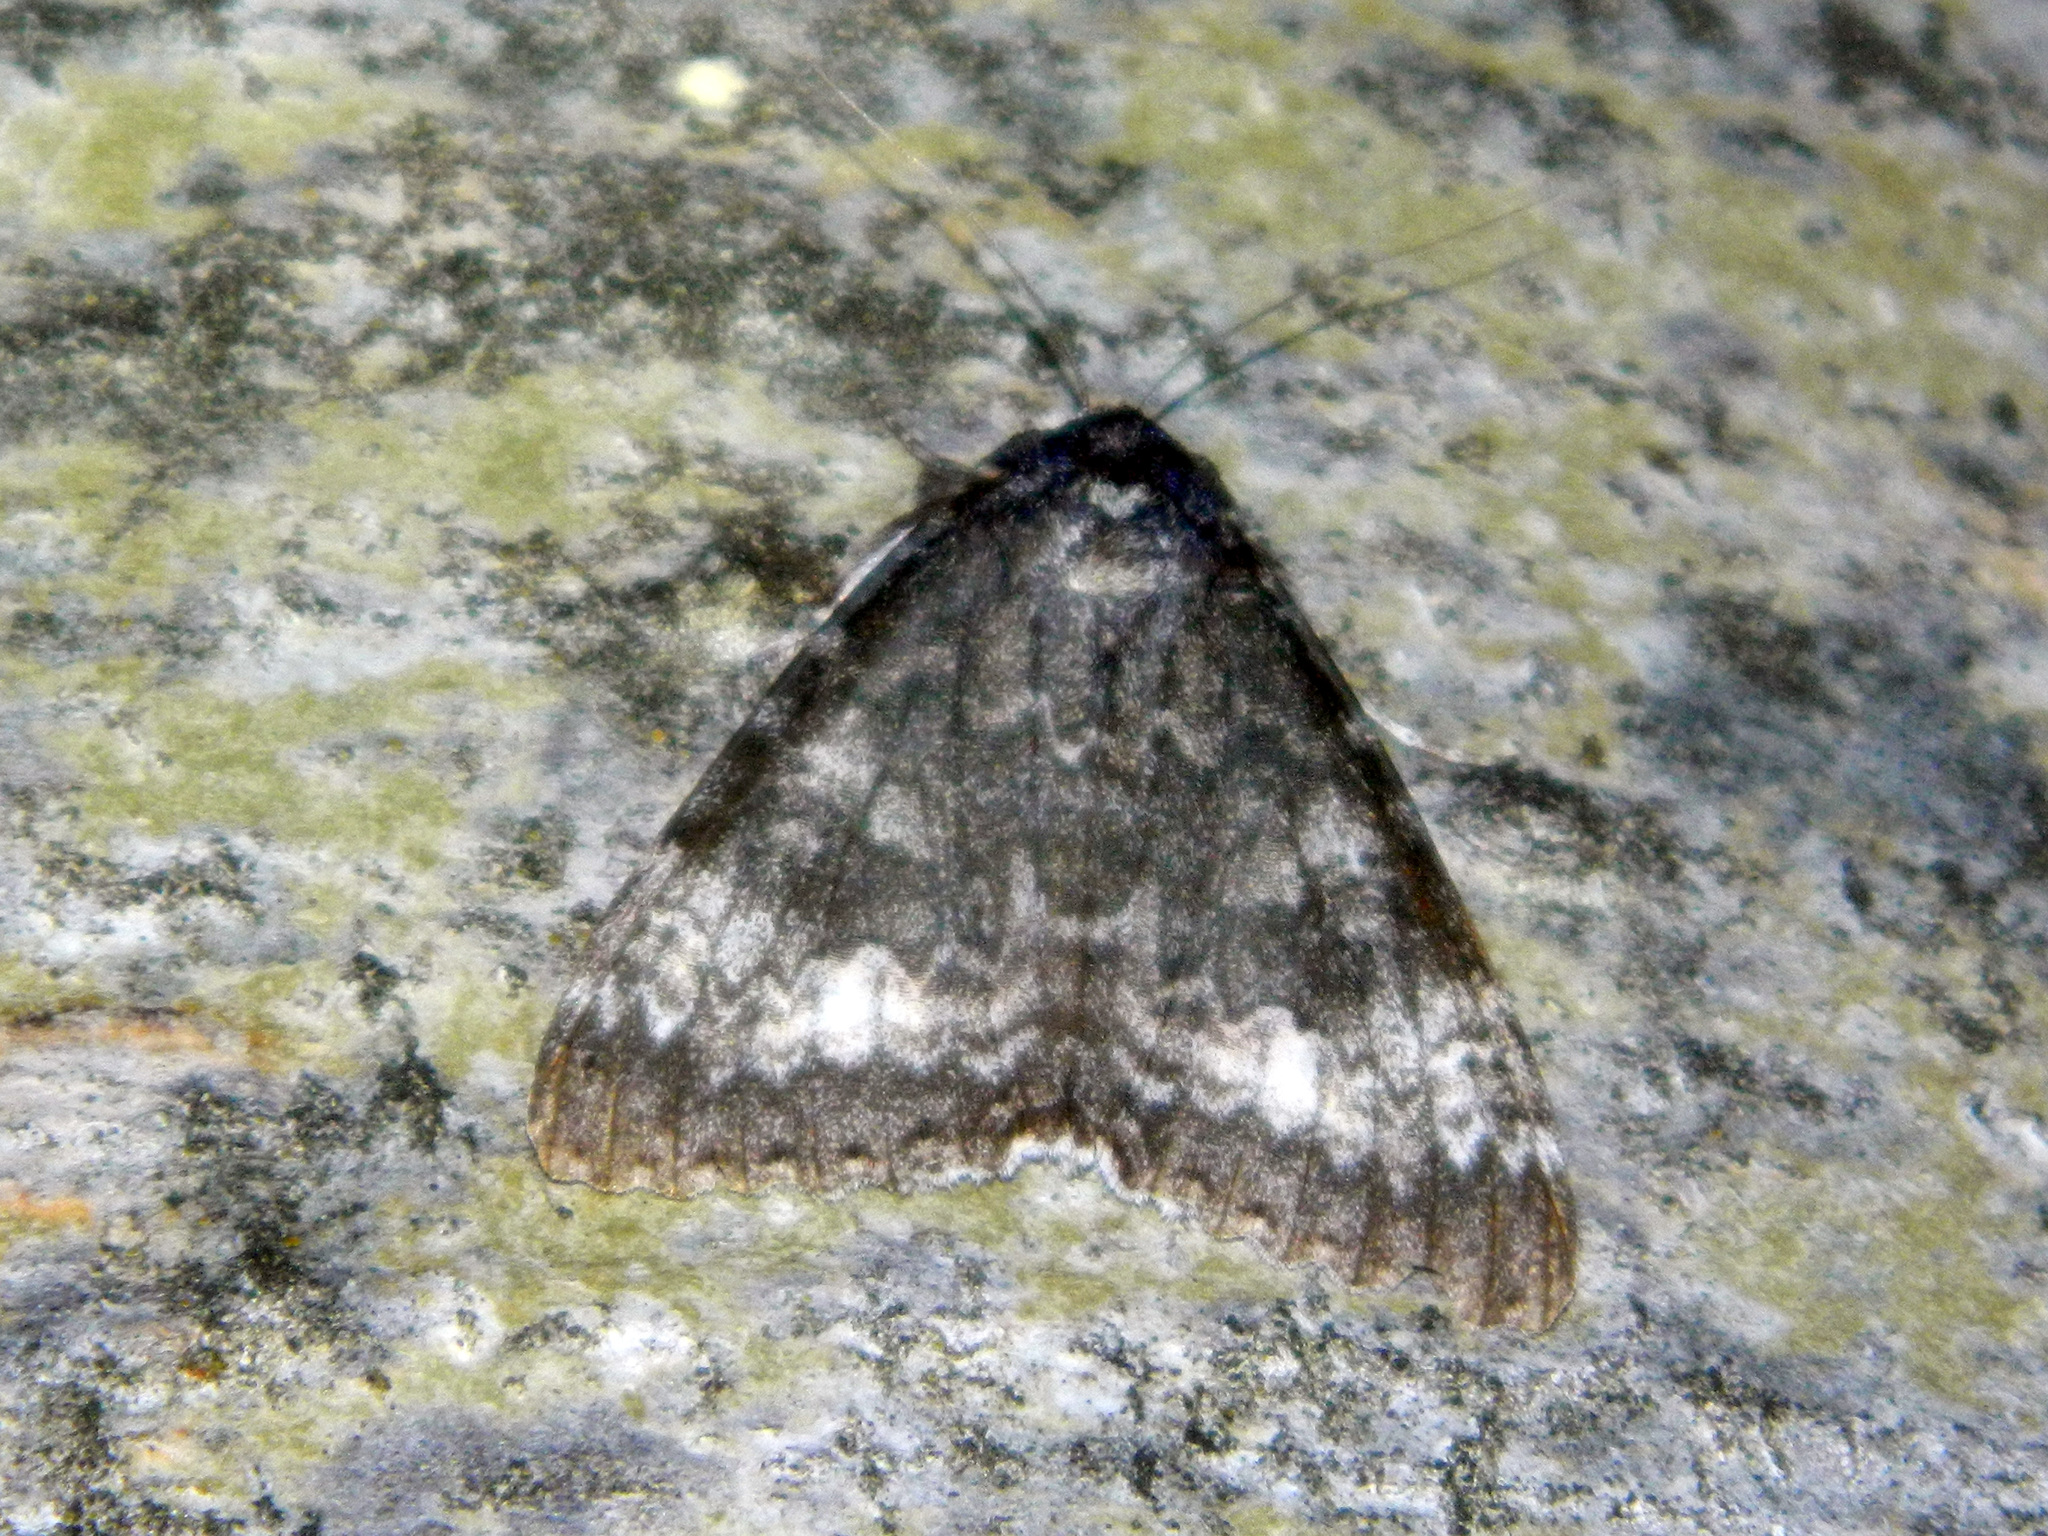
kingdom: Animalia
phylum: Arthropoda
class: Insecta
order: Lepidoptera
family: Erebidae
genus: Catocala
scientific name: Catocala briseis
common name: Briseis underwing
